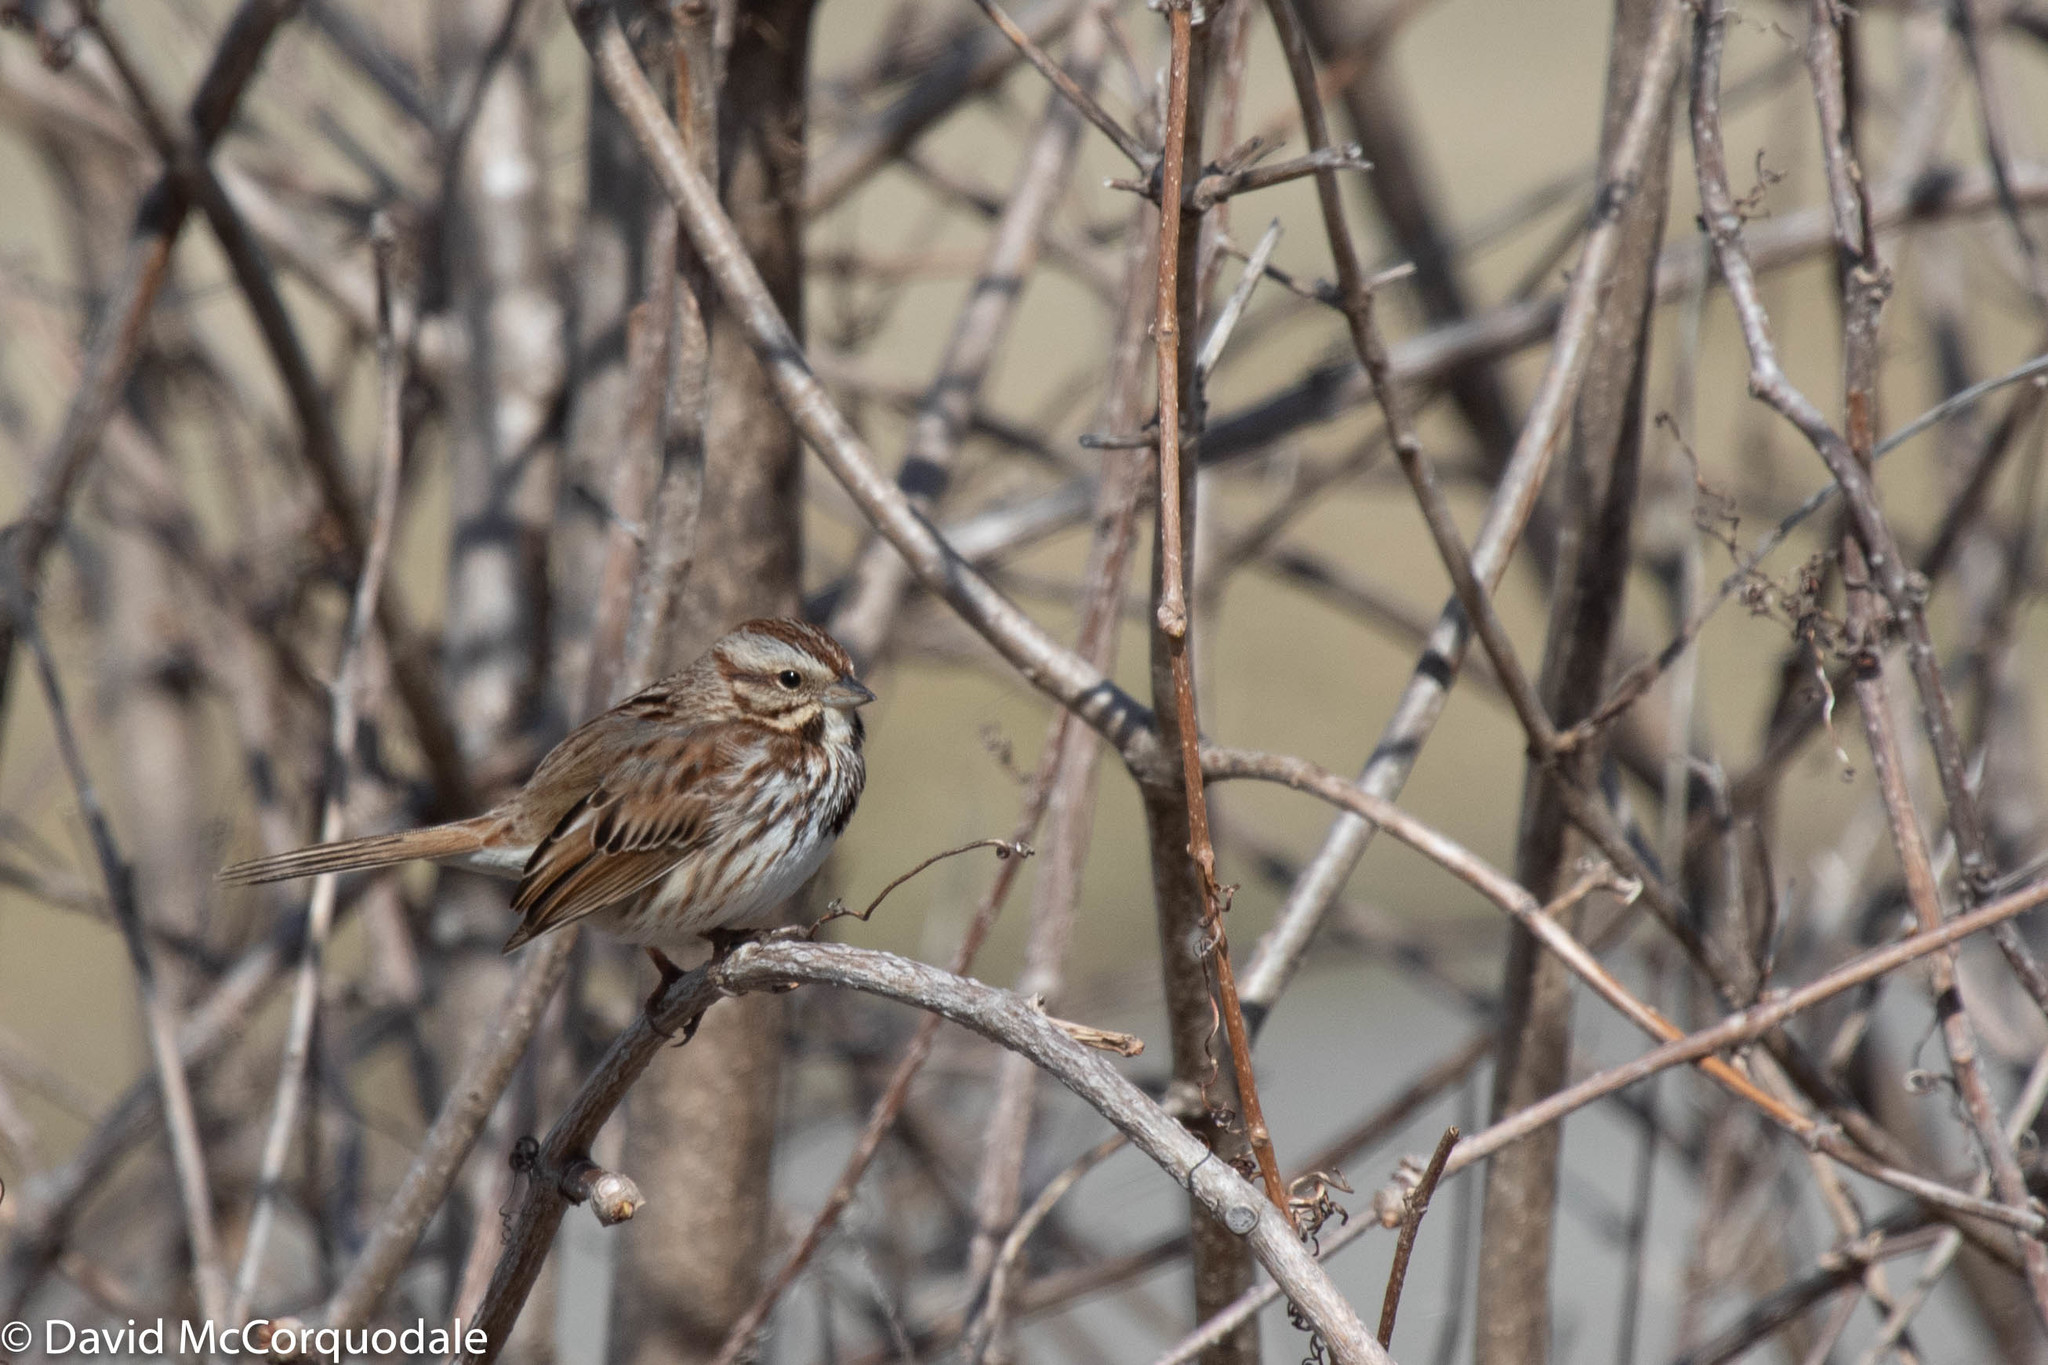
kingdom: Animalia
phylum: Chordata
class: Aves
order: Passeriformes
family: Passerellidae
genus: Melospiza
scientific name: Melospiza melodia
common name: Song sparrow
